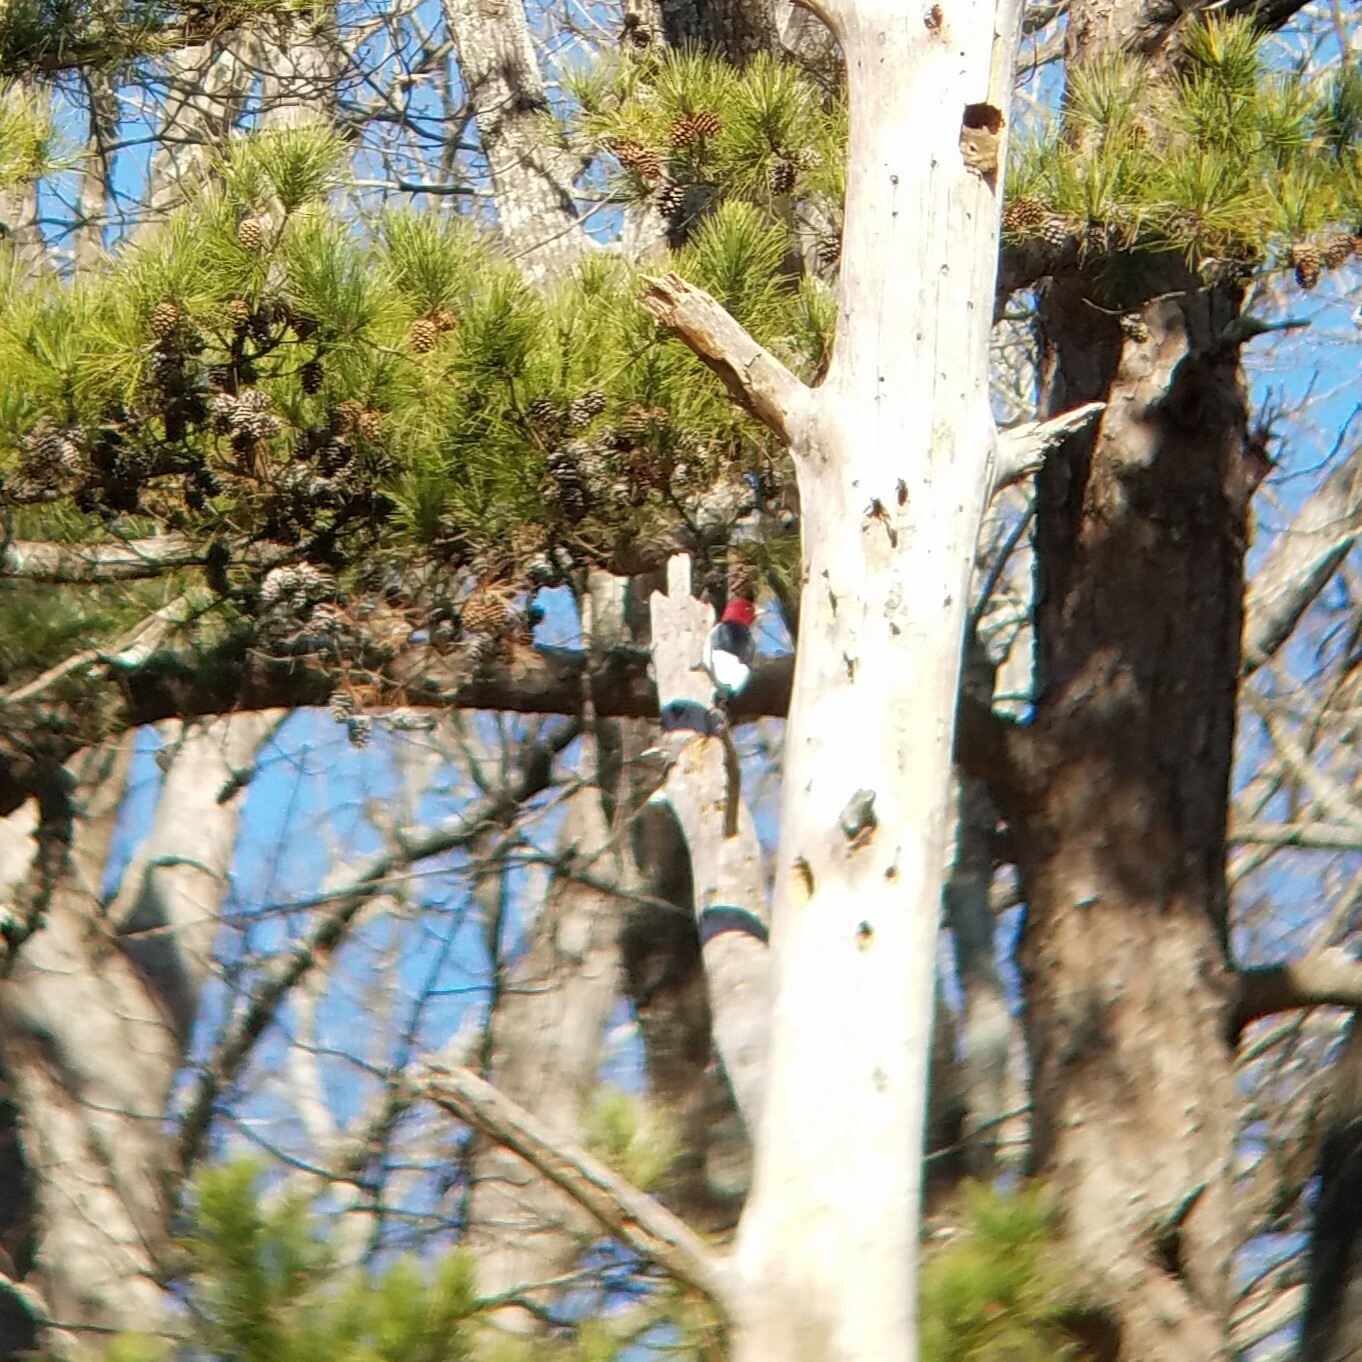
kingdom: Animalia
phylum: Chordata
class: Aves
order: Piciformes
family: Picidae
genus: Melanerpes
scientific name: Melanerpes erythrocephalus
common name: Red-headed woodpecker
